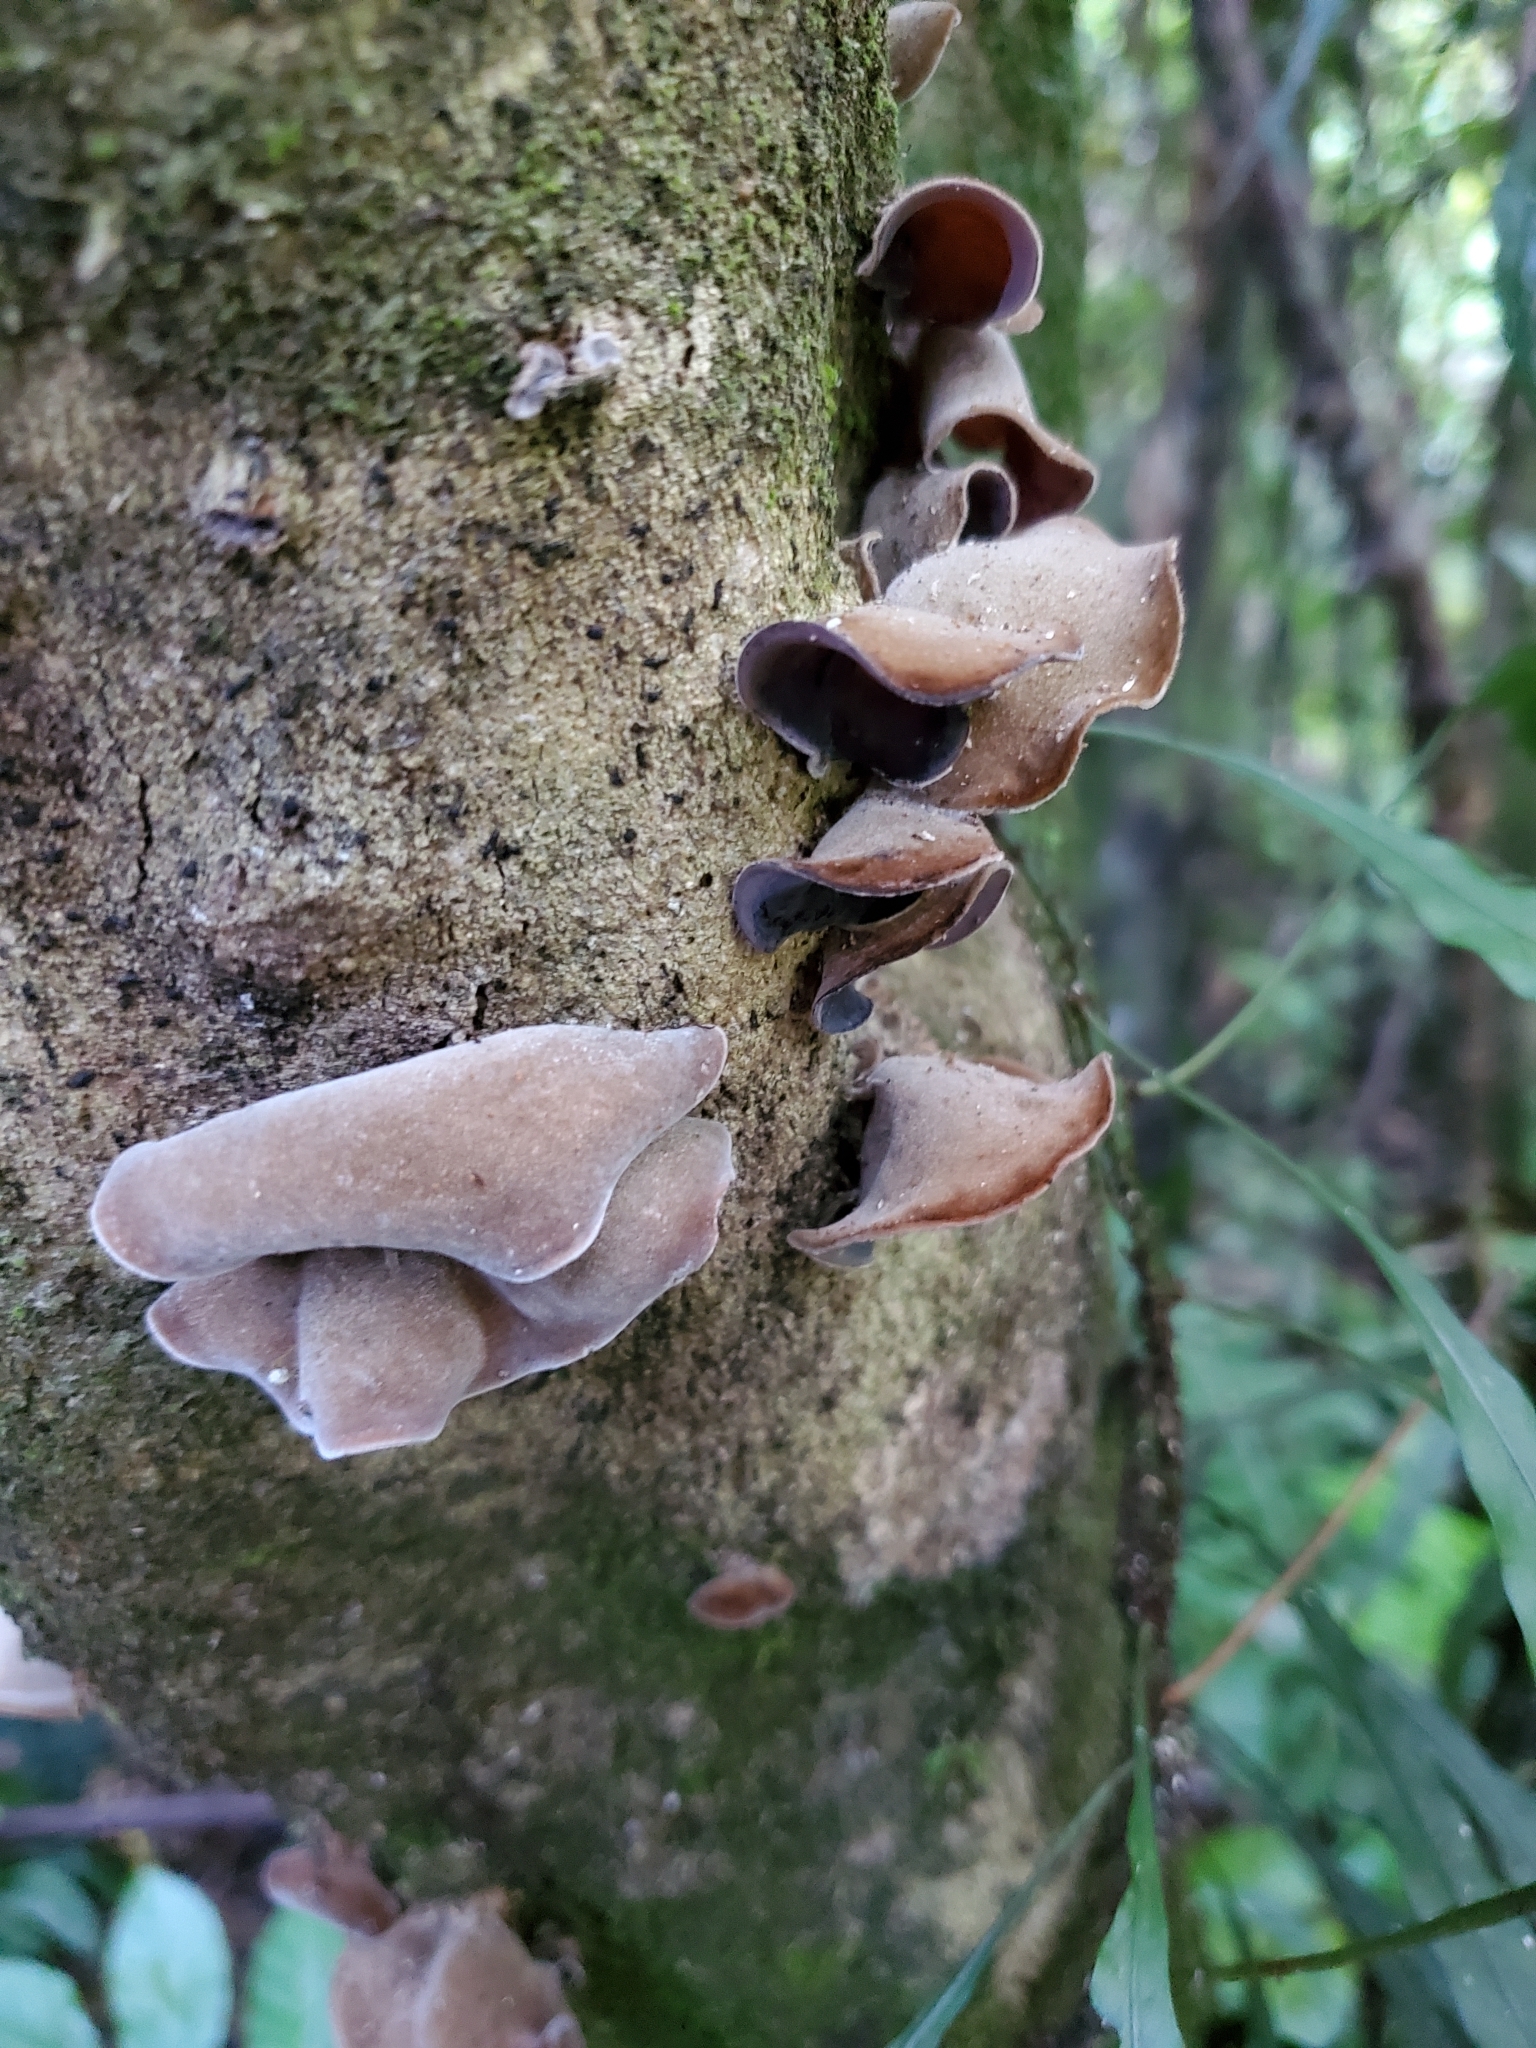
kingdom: Fungi
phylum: Basidiomycota
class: Agaricomycetes
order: Auriculariales
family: Auriculariaceae
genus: Auricularia
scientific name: Auricularia cornea
